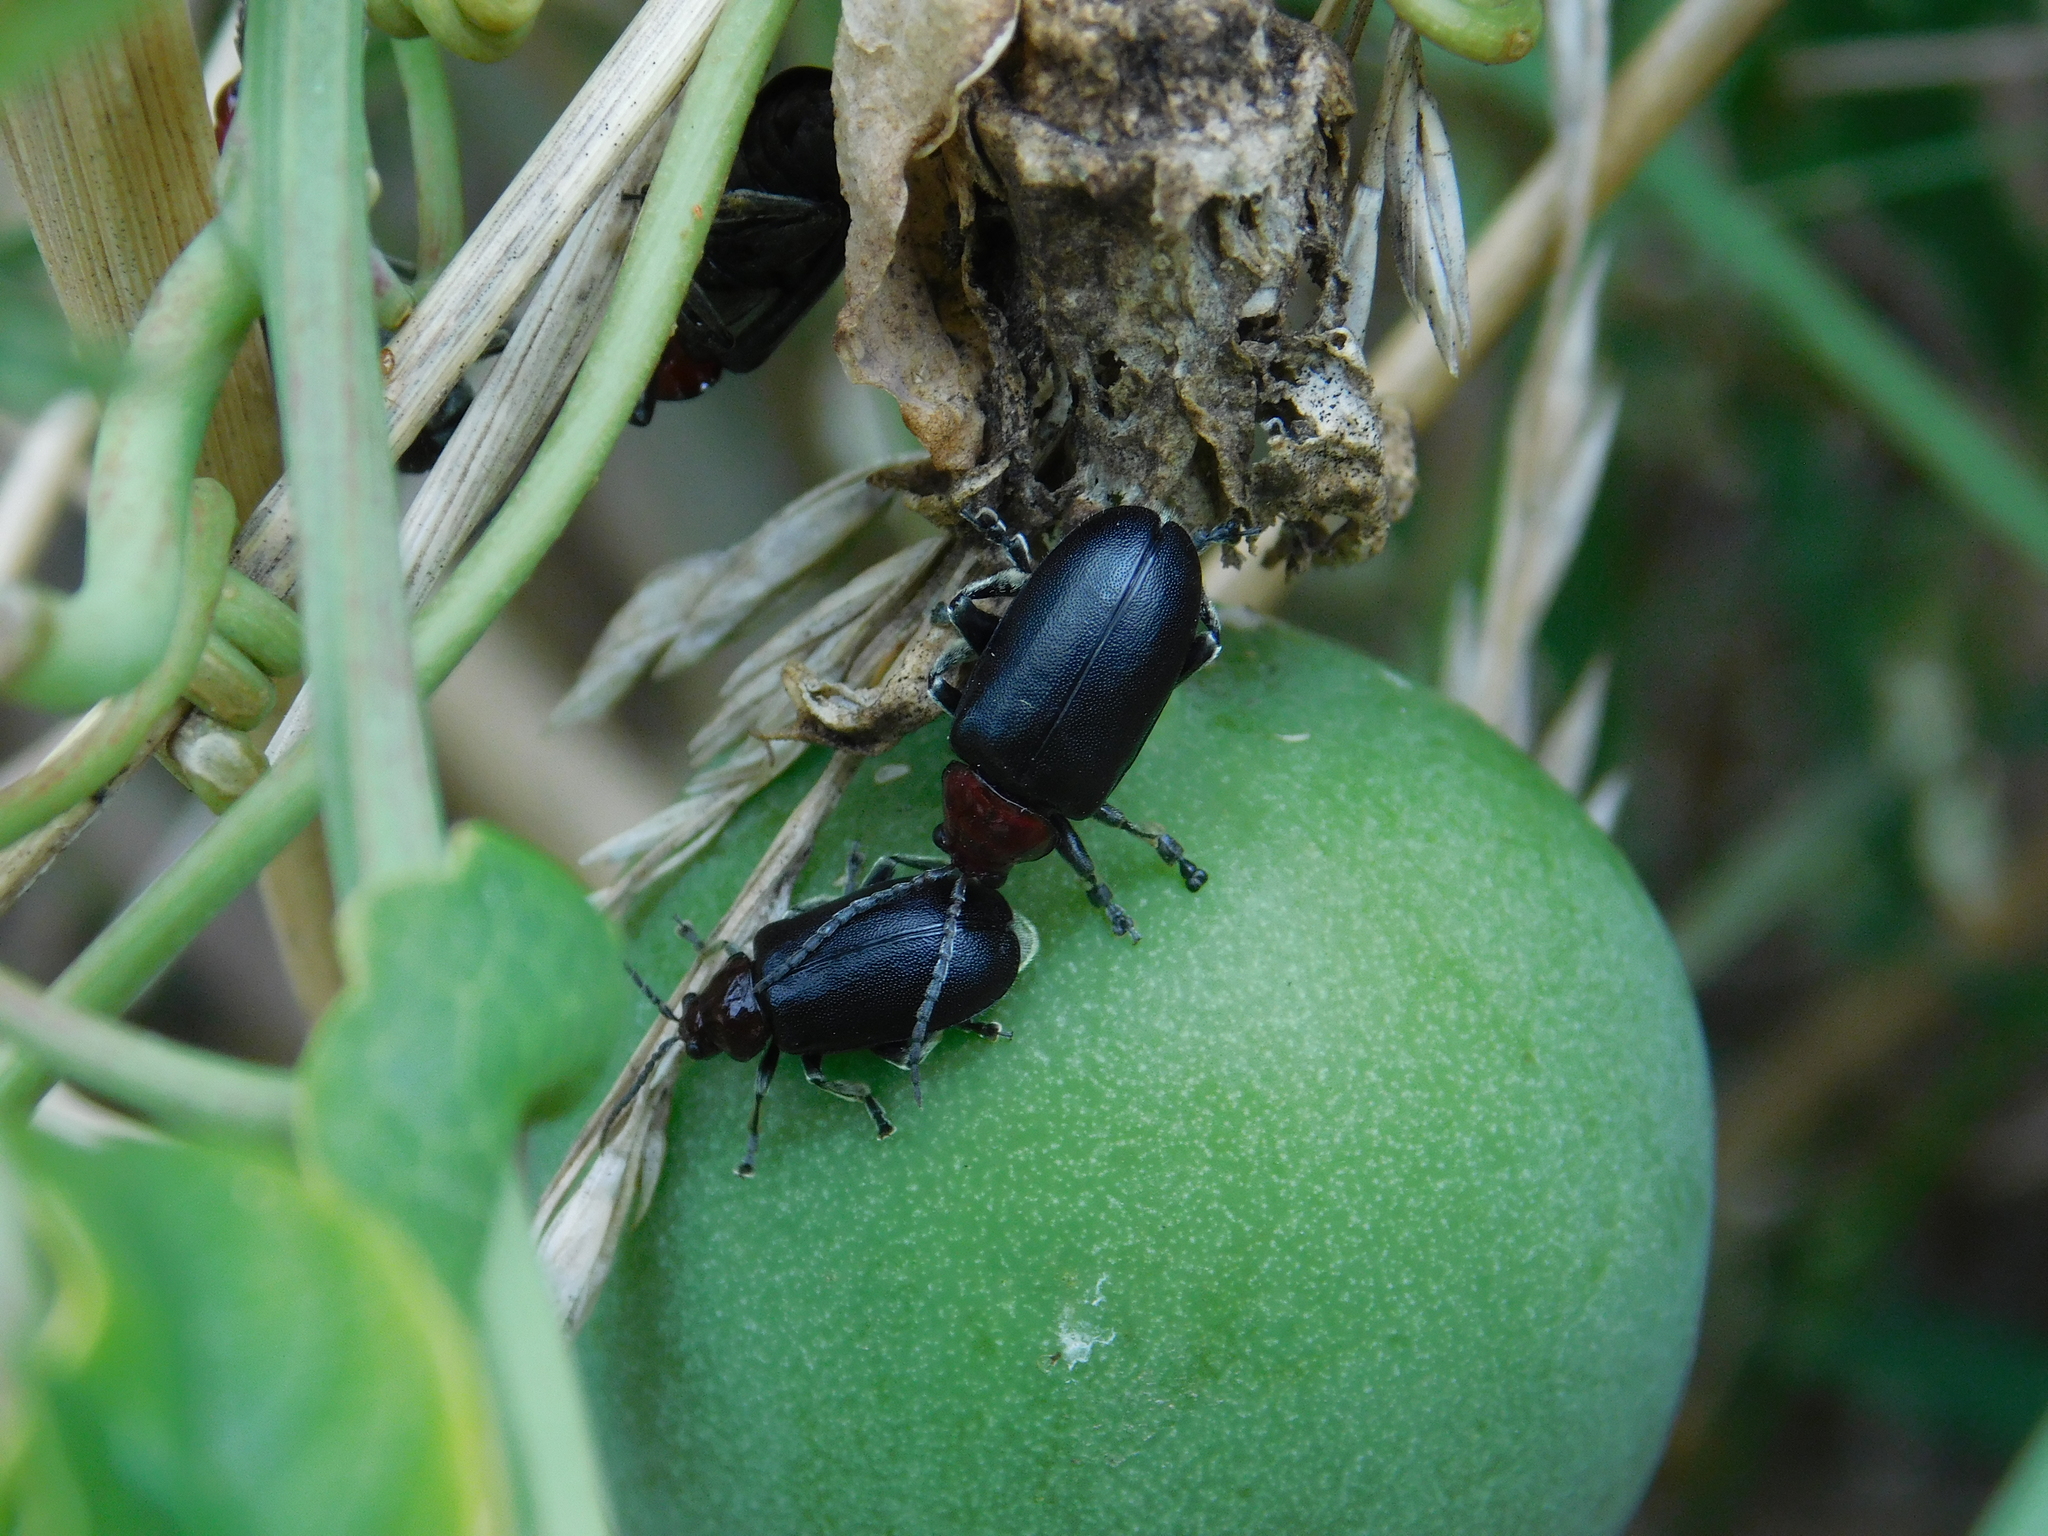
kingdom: Animalia
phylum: Arthropoda
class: Insecta
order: Coleoptera
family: Chrysomelidae
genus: Cacoscelis
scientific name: Cacoscelis
